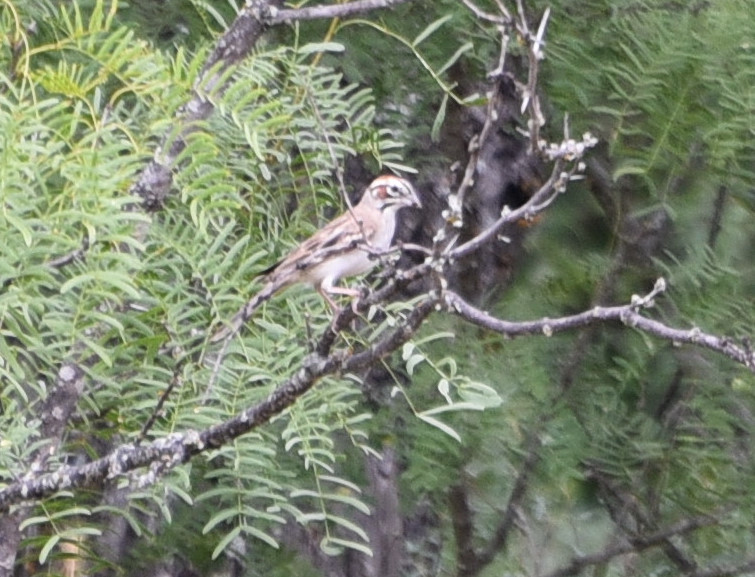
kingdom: Animalia
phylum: Chordata
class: Aves
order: Passeriformes
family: Passerellidae
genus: Chondestes
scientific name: Chondestes grammacus
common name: Lark sparrow
